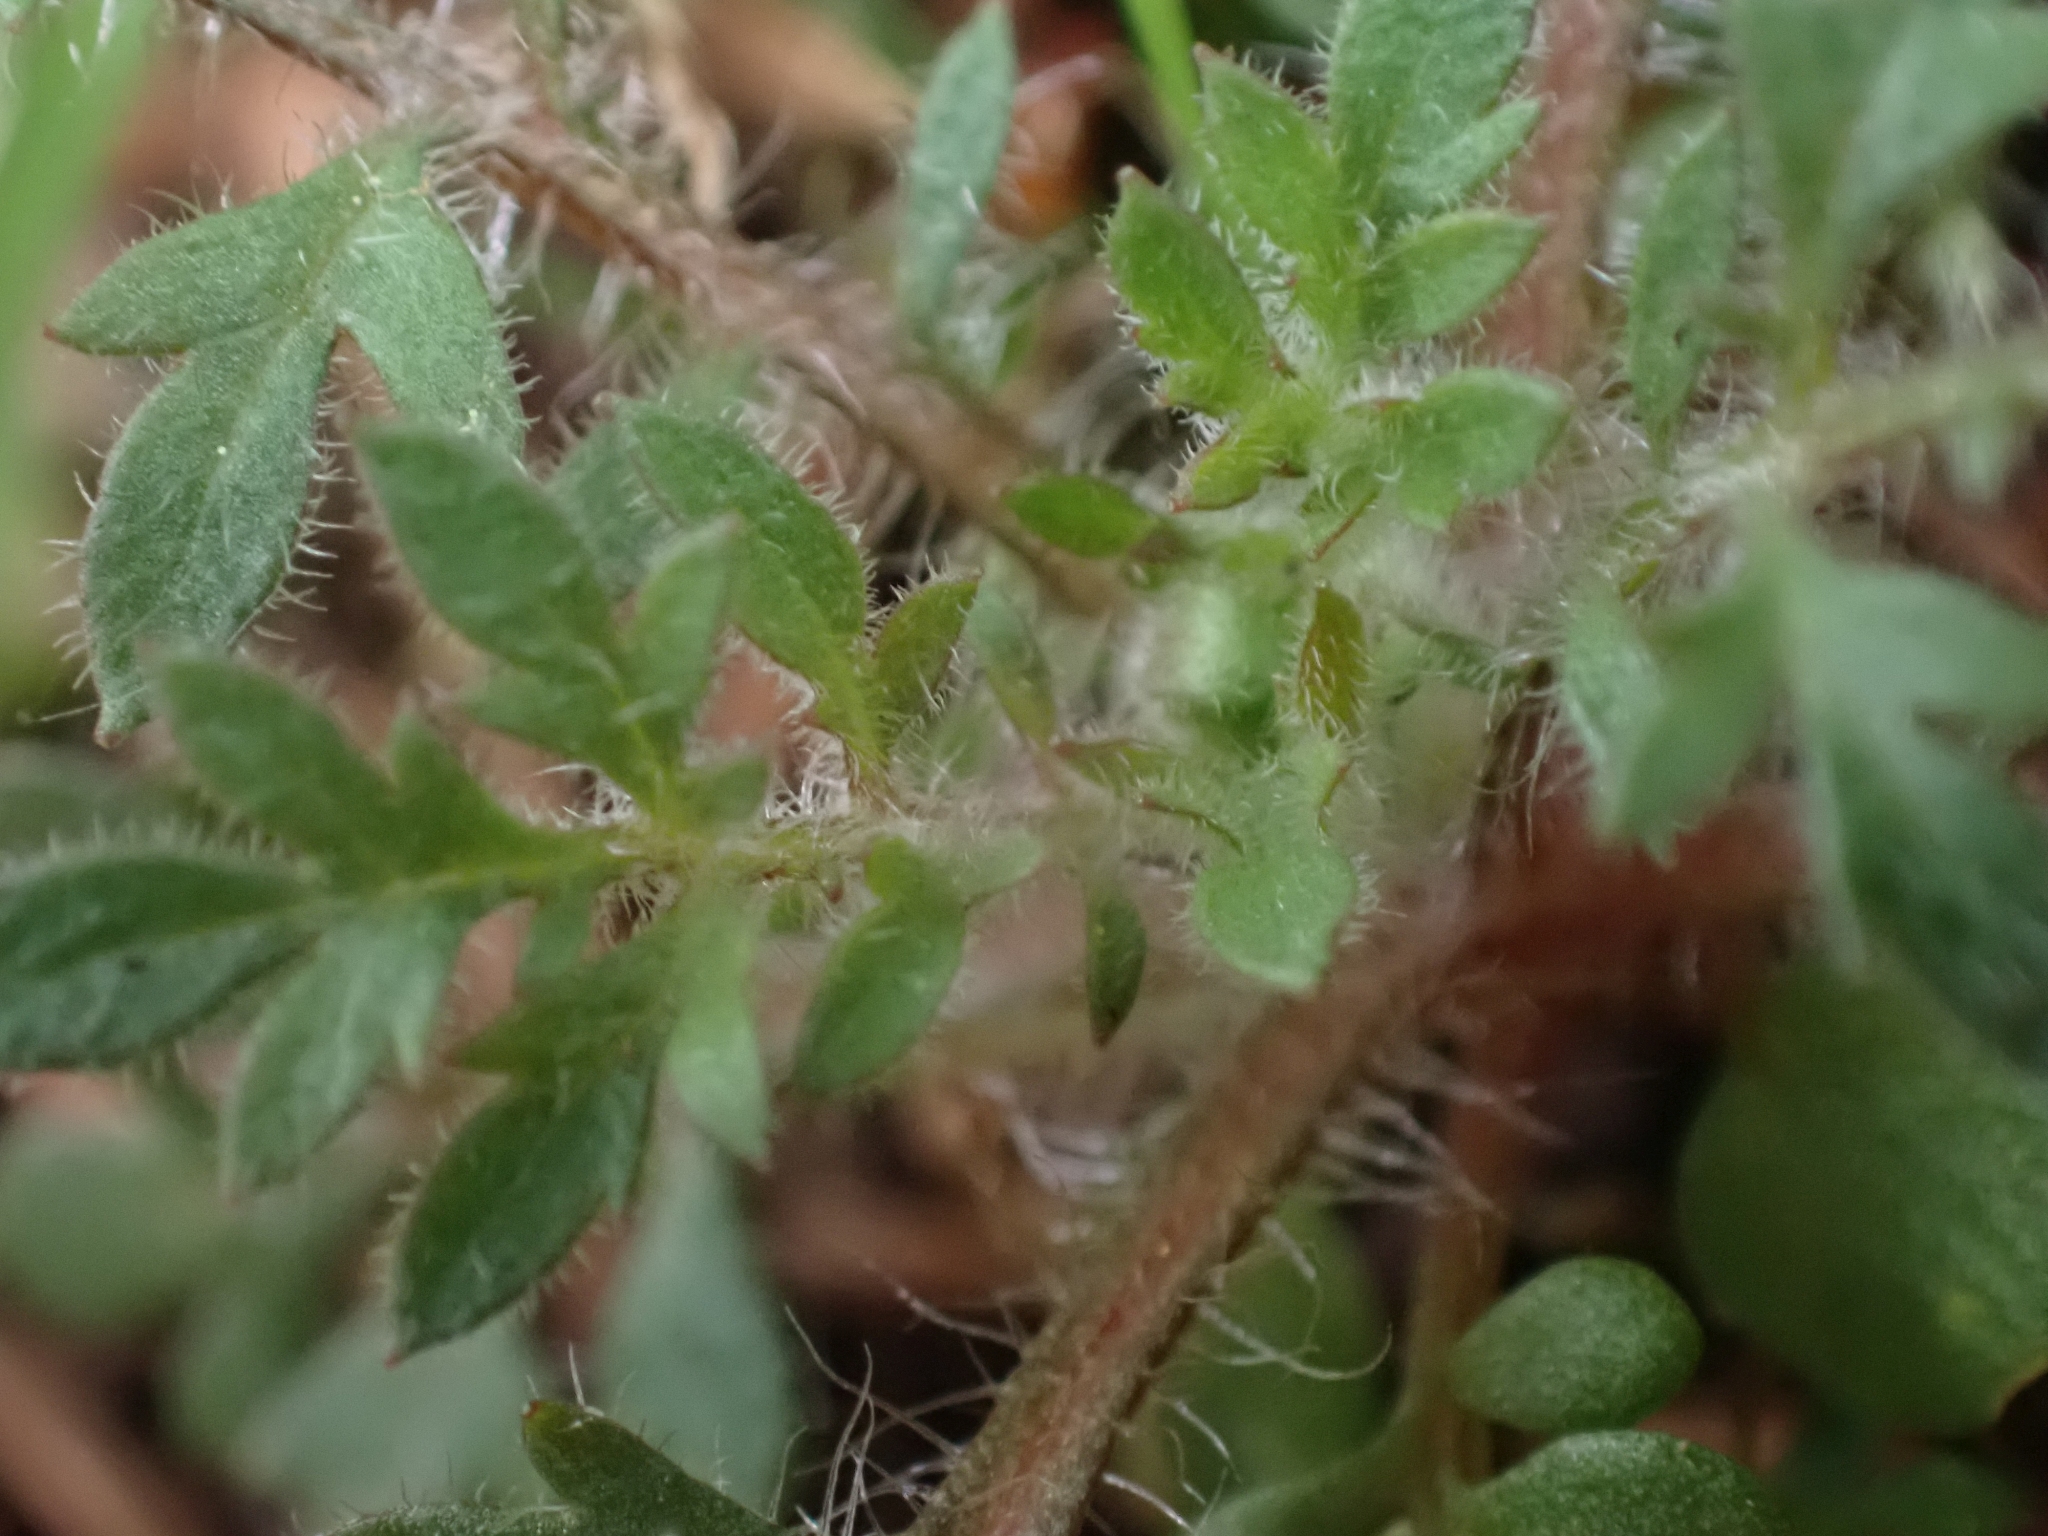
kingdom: Plantae
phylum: Tracheophyta
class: Magnoliopsida
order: Ericales
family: Polemoniaceae
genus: Collomia
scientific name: Collomia heterophylla
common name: Variable-leaved collomia
